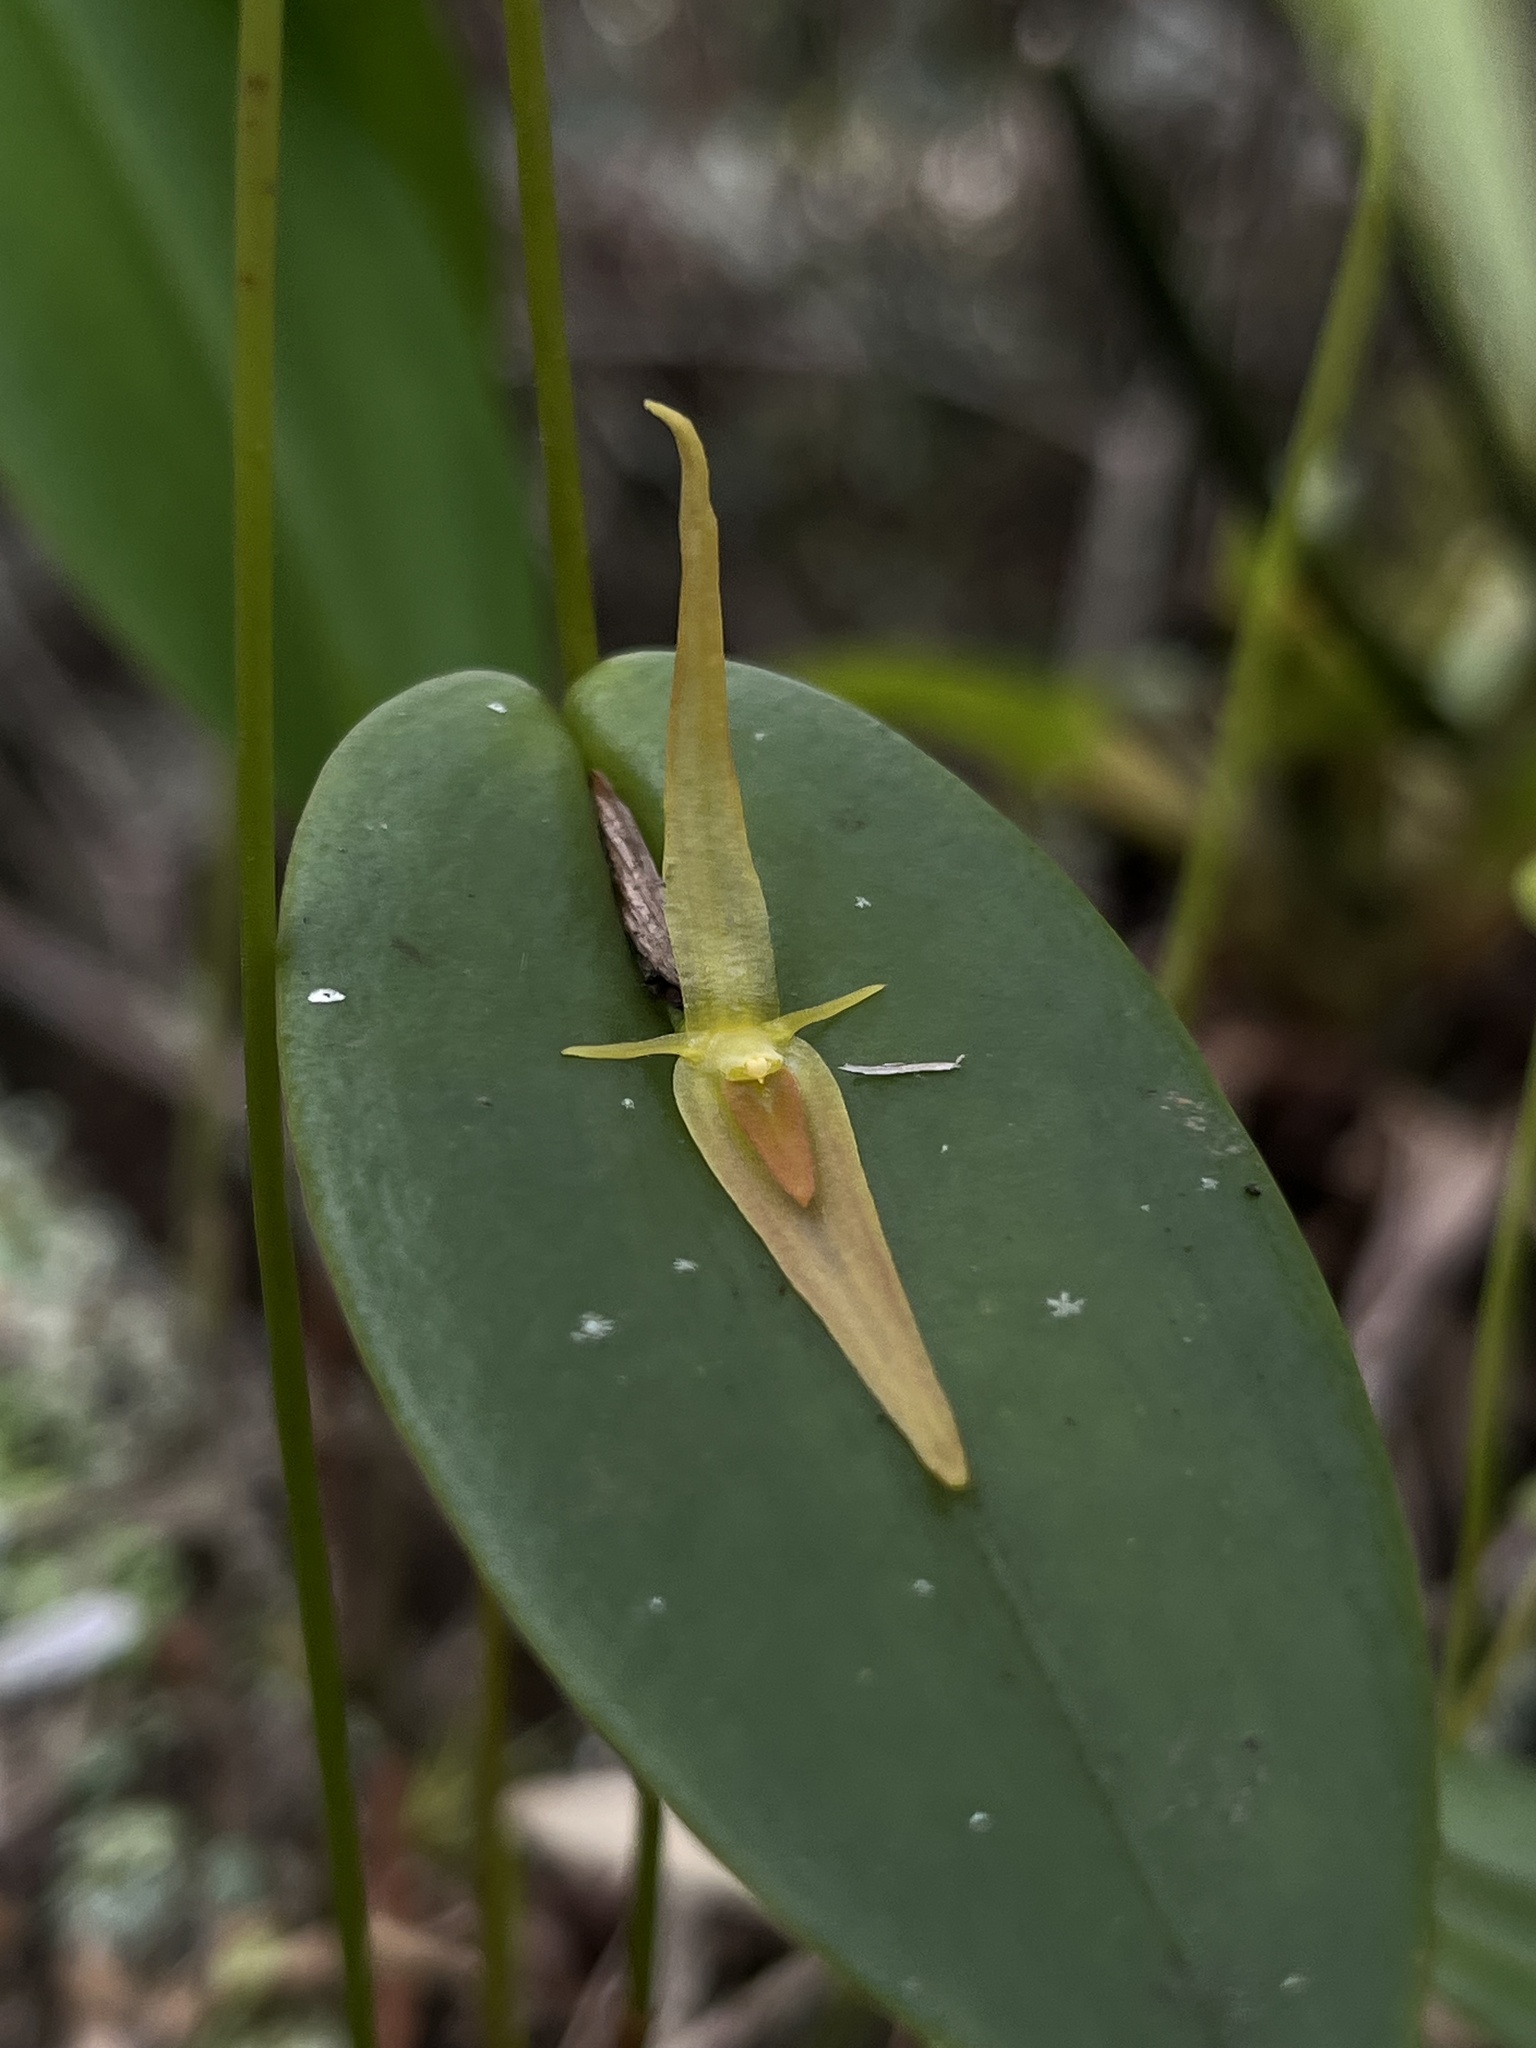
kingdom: Plantae
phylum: Tracheophyta
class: Liliopsida
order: Asparagales
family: Orchidaceae
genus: Pleurothallis
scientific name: Pleurothallis microcardia
